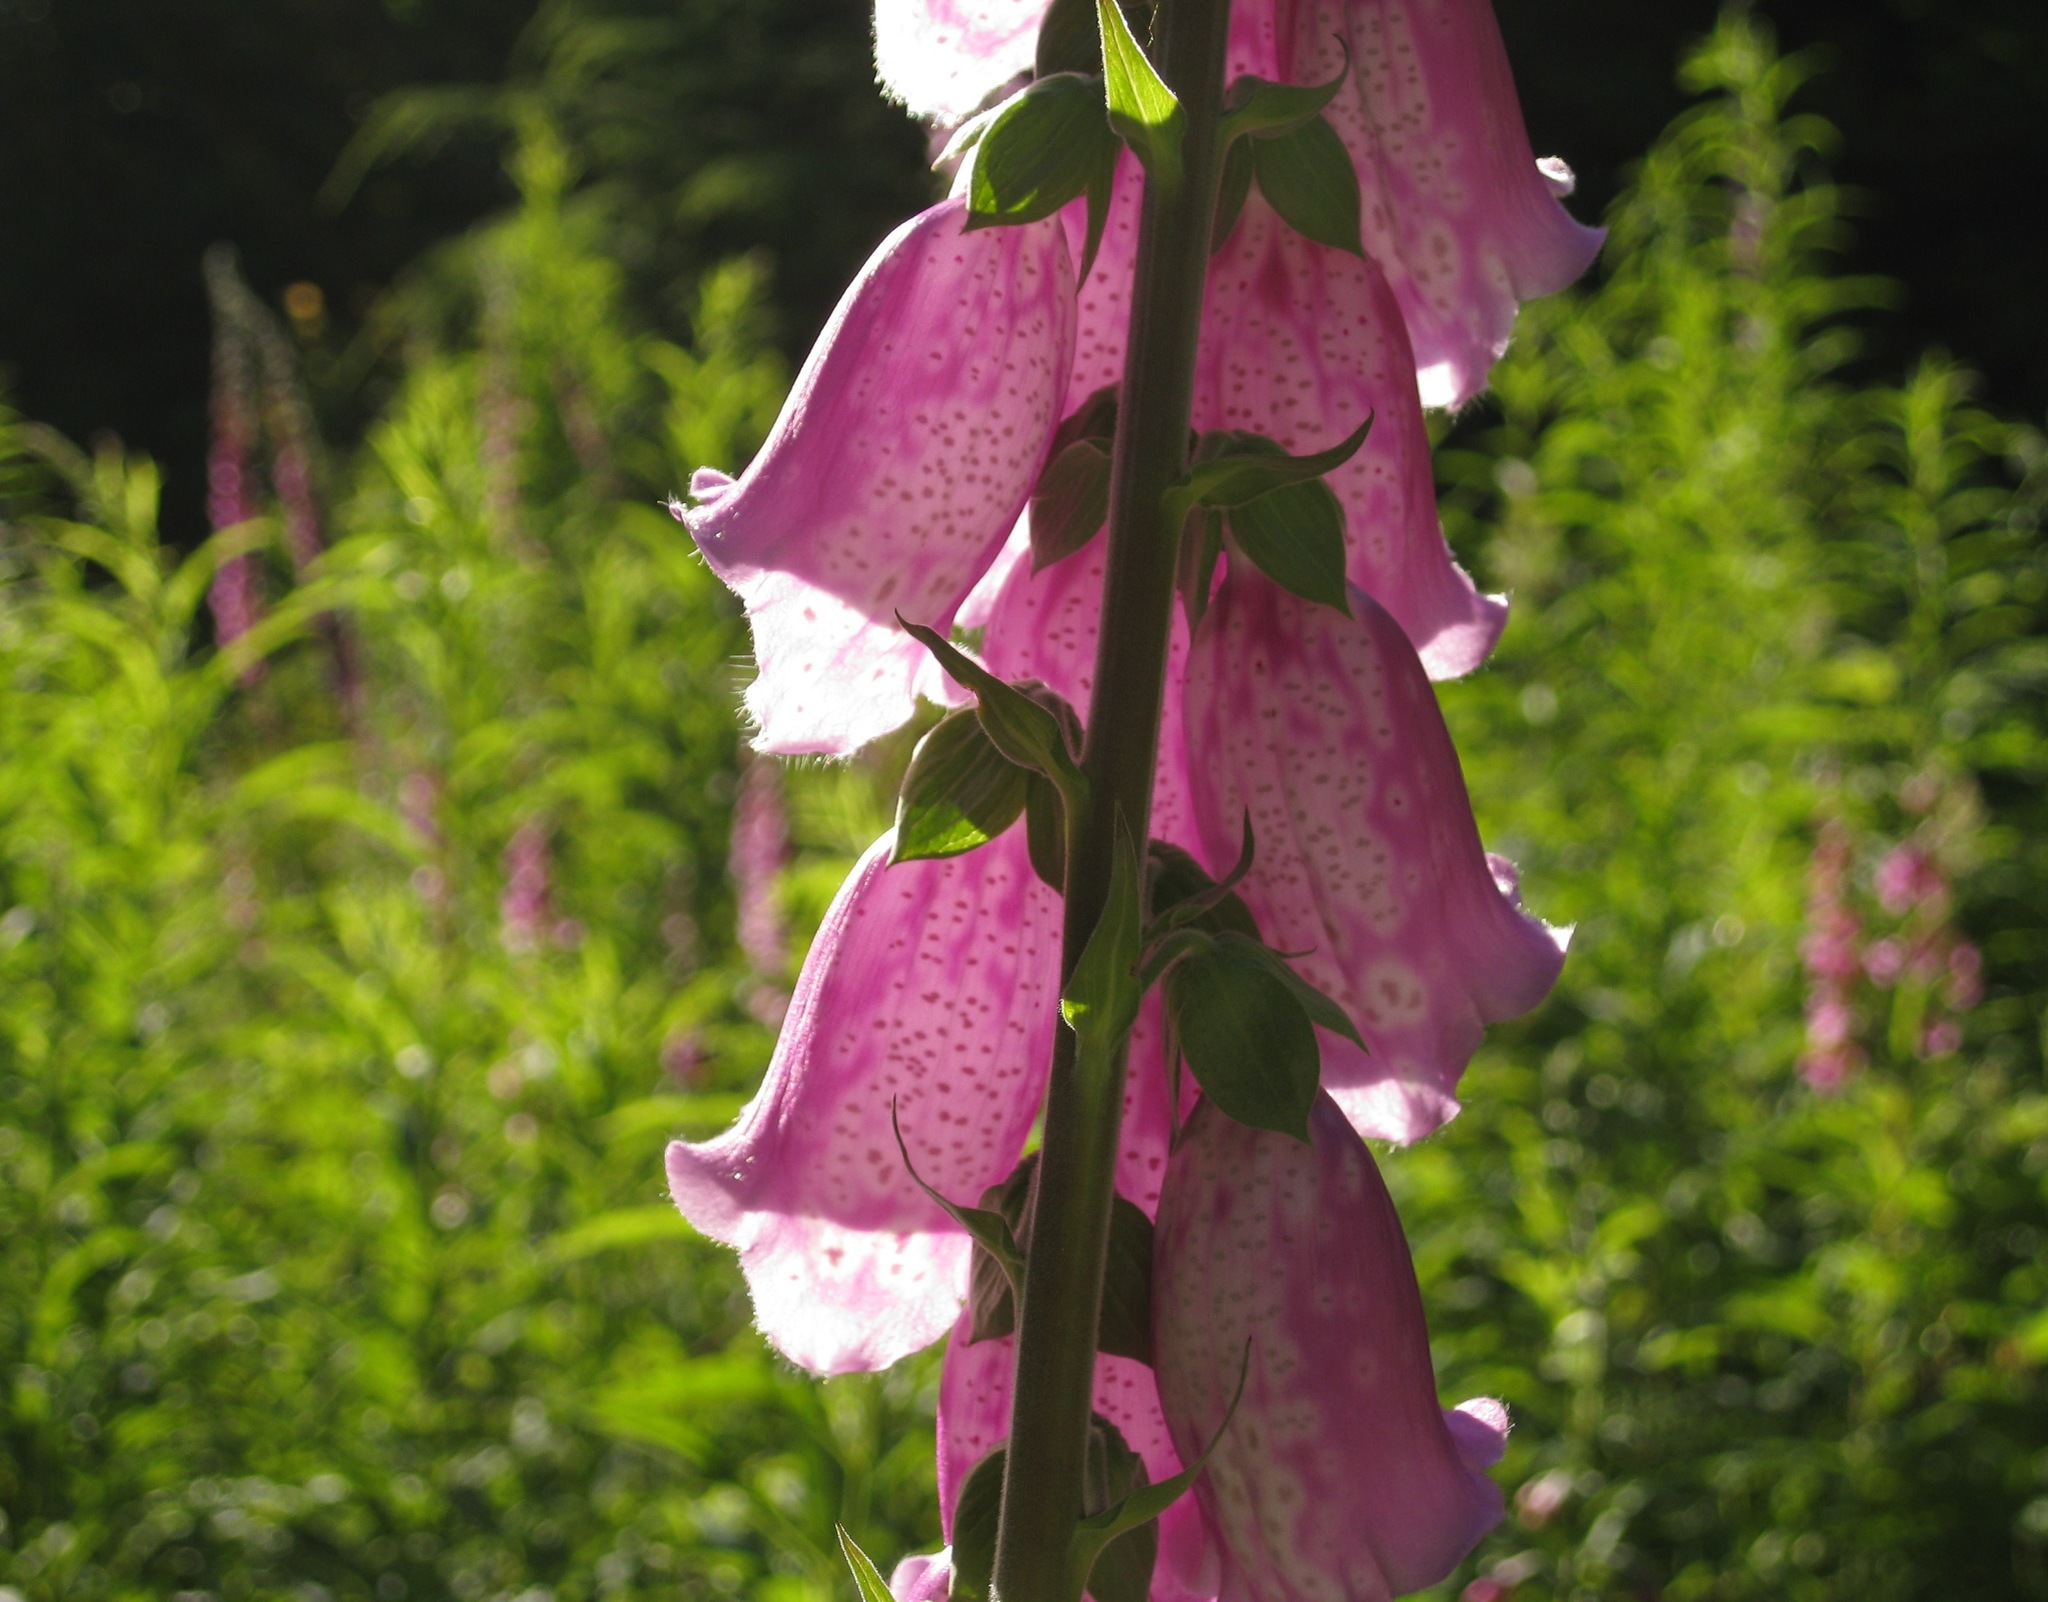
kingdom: Plantae
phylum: Tracheophyta
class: Magnoliopsida
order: Lamiales
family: Plantaginaceae
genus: Digitalis
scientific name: Digitalis purpurea
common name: Foxglove
